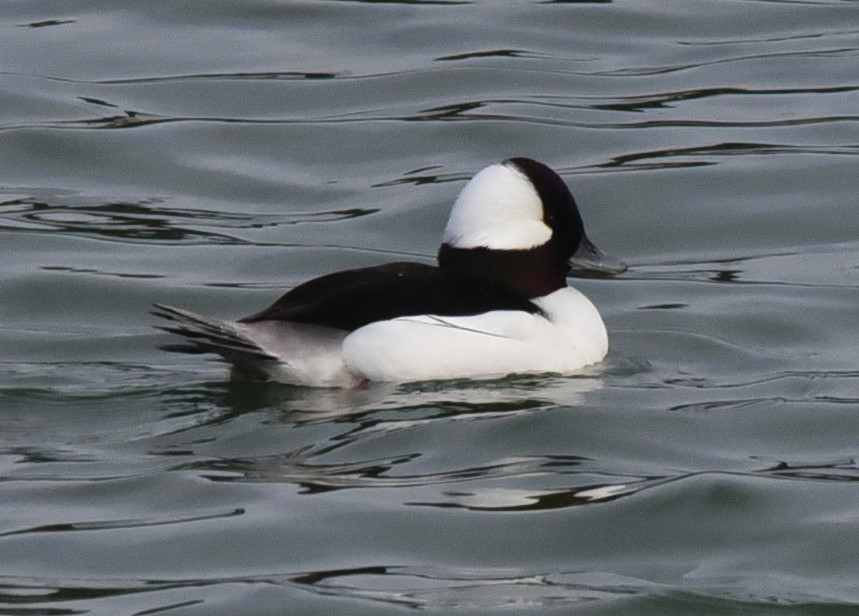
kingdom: Animalia
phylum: Chordata
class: Aves
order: Anseriformes
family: Anatidae
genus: Bucephala
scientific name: Bucephala albeola
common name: Bufflehead
